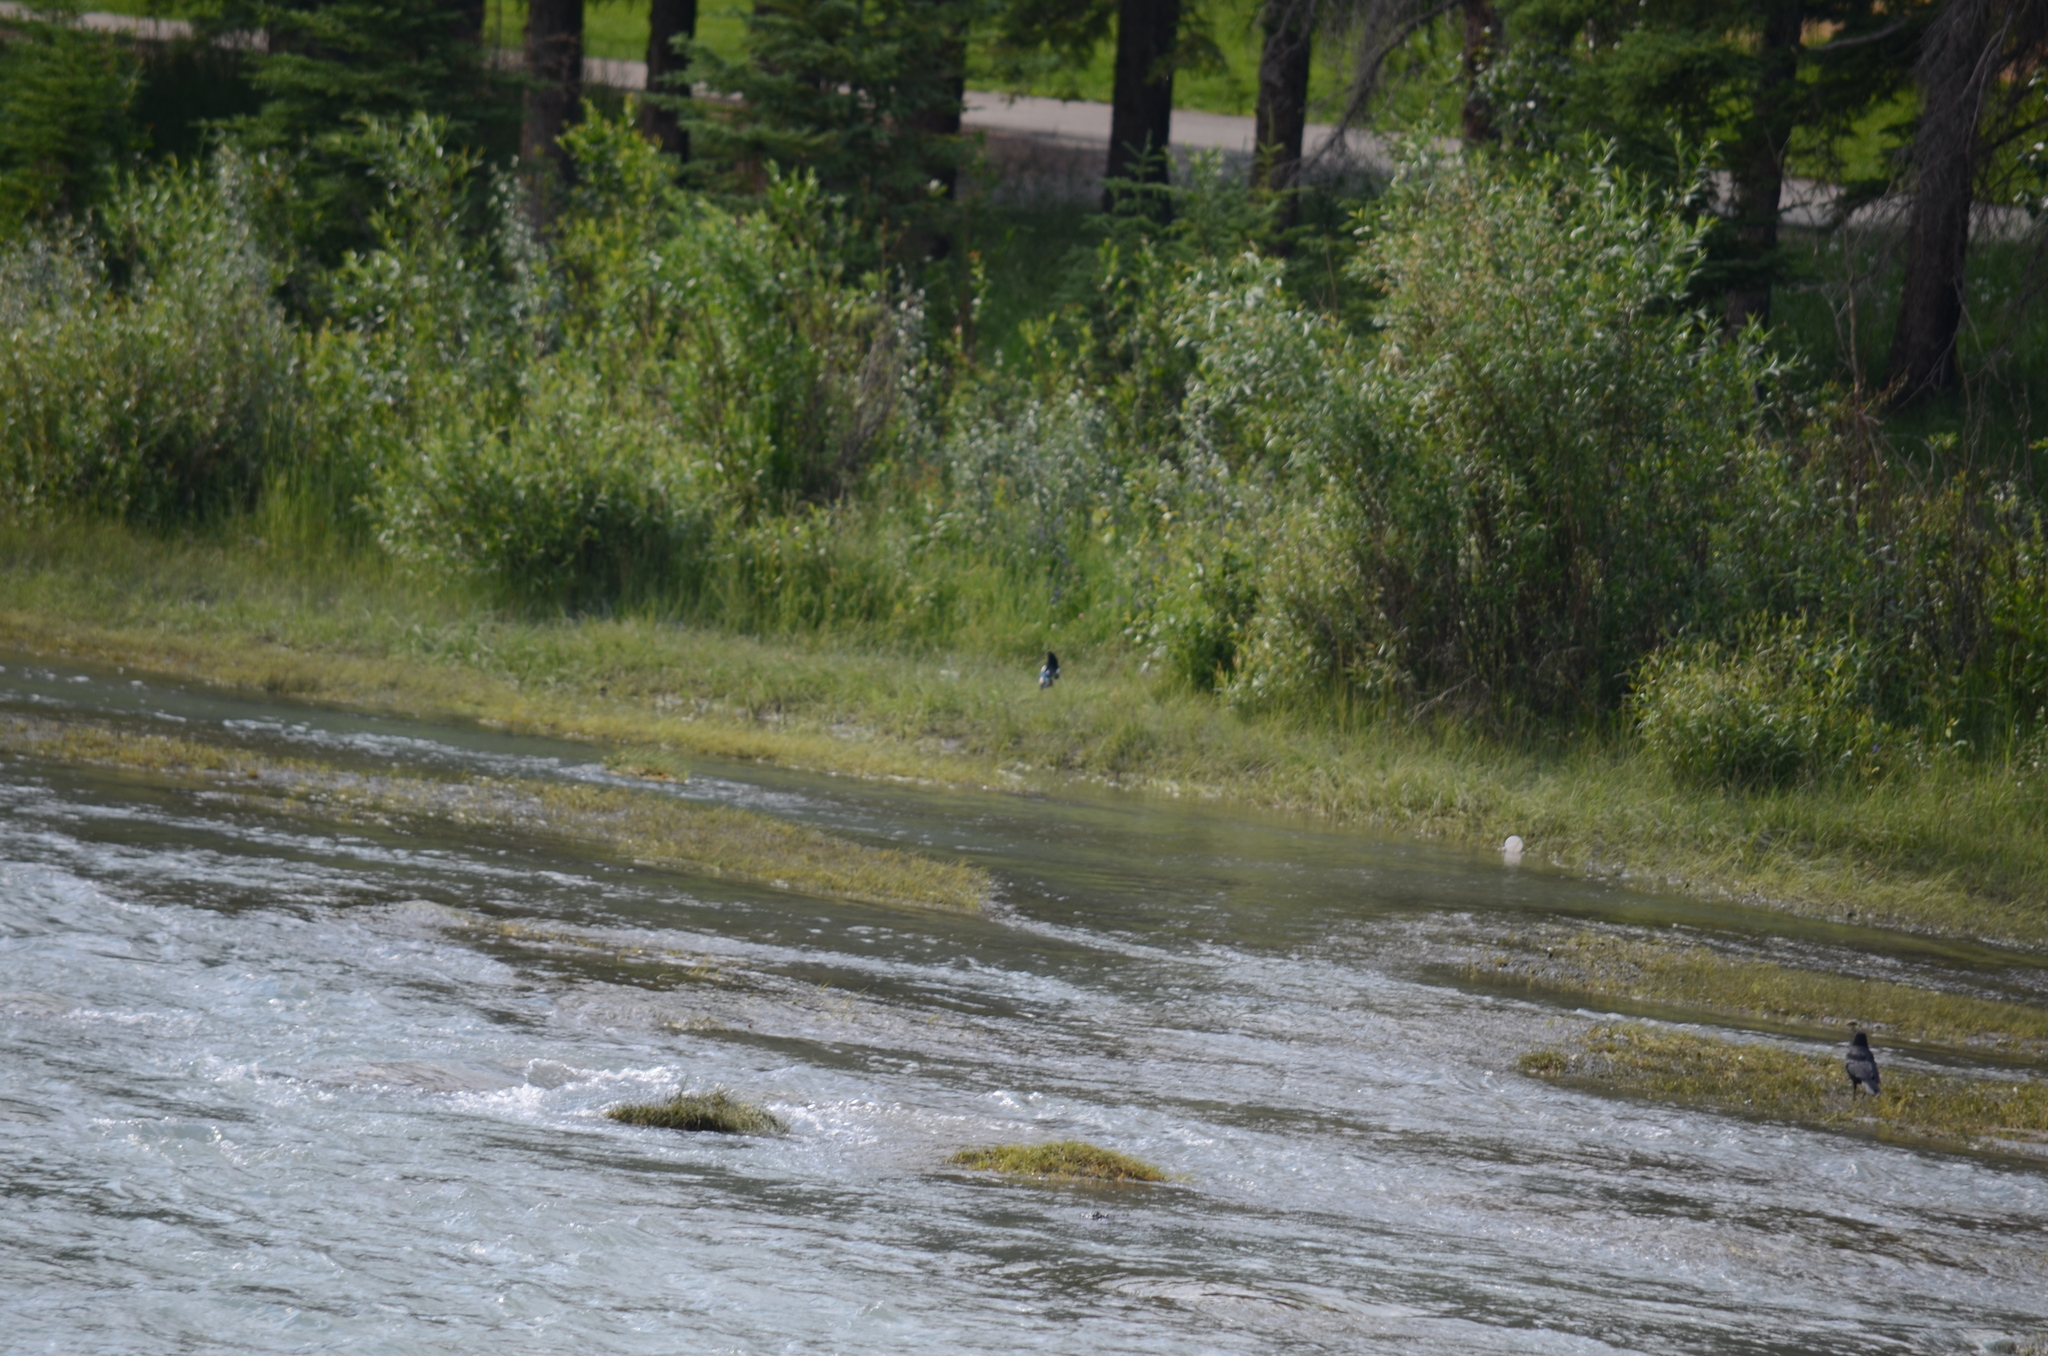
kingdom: Animalia
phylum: Chordata
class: Aves
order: Passeriformes
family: Corvidae
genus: Pica
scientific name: Pica hudsonia
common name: Black-billed magpie
